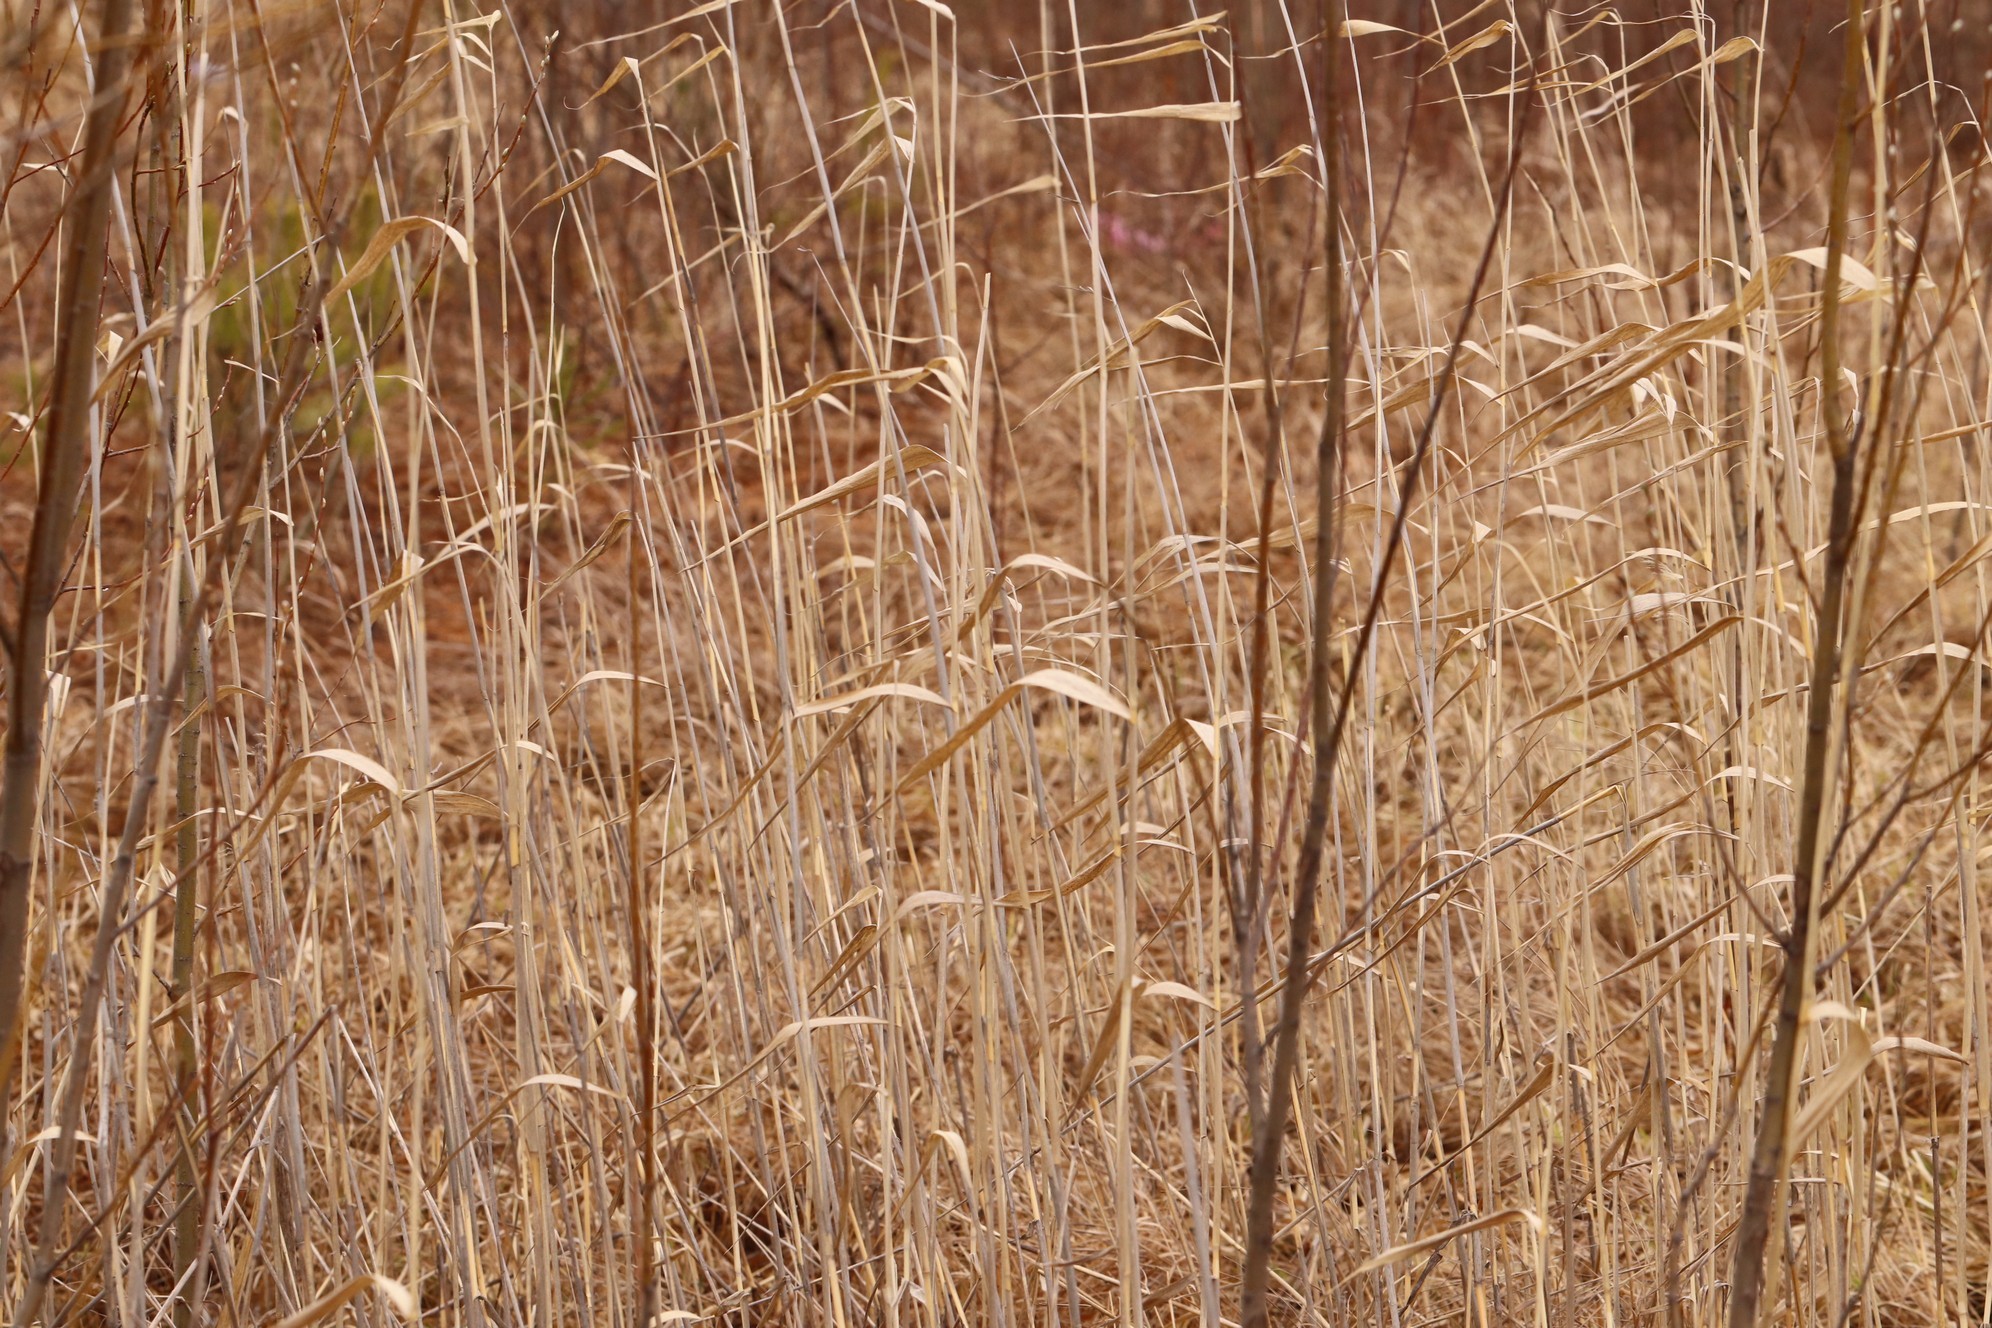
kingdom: Plantae
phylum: Tracheophyta
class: Liliopsida
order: Poales
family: Poaceae
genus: Phragmites
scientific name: Phragmites australis
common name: Common reed
